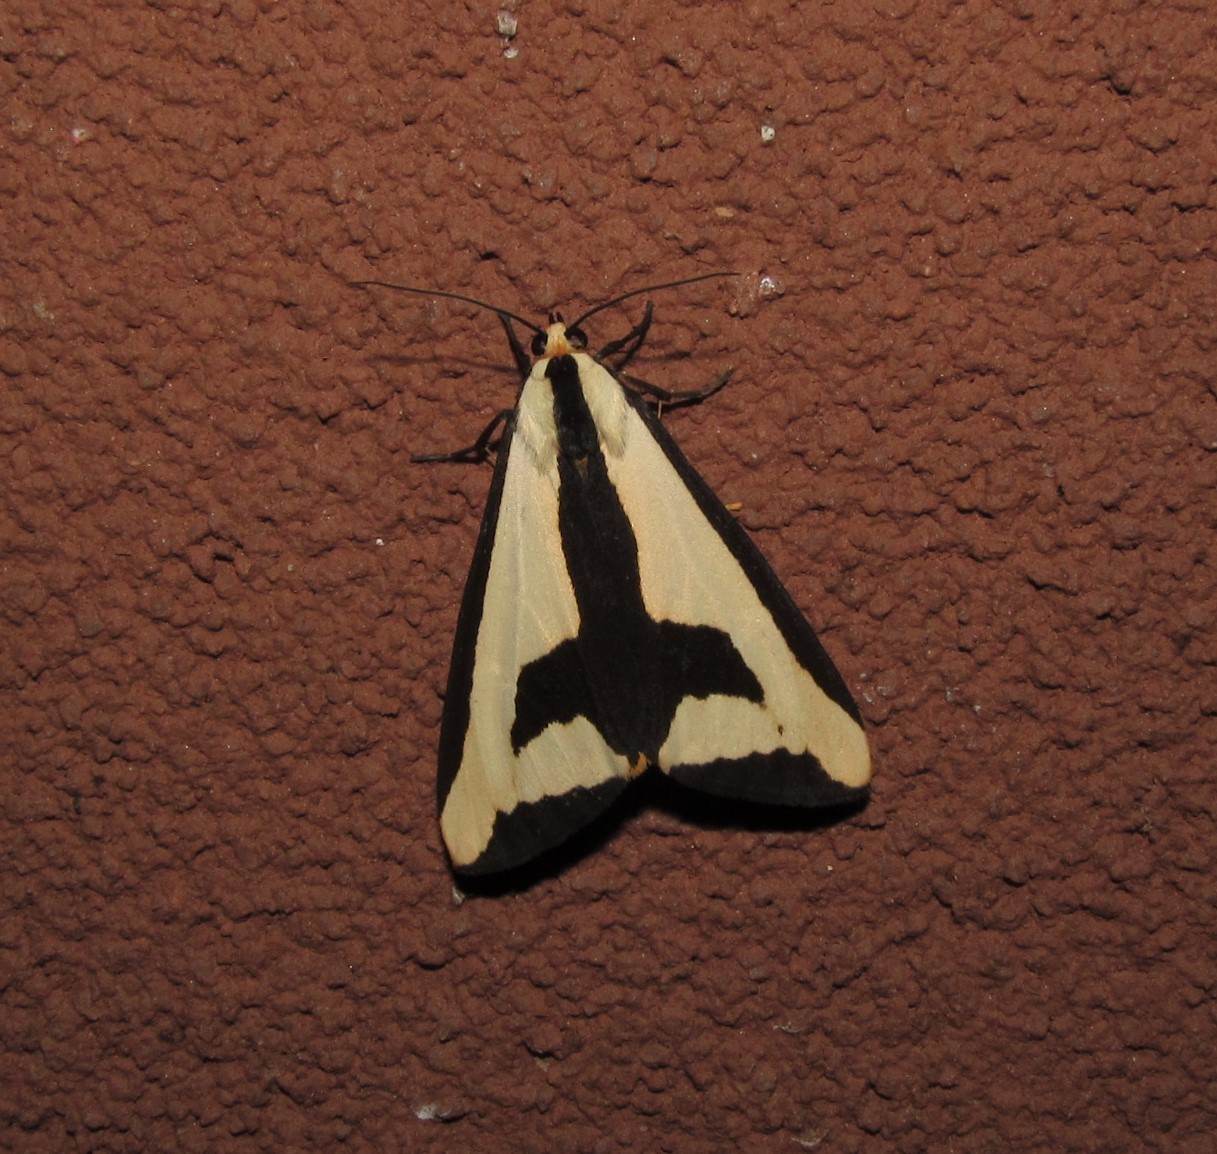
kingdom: Animalia
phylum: Arthropoda
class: Insecta
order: Lepidoptera
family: Erebidae
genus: Haploa
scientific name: Haploa clymene
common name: Clymene moth
